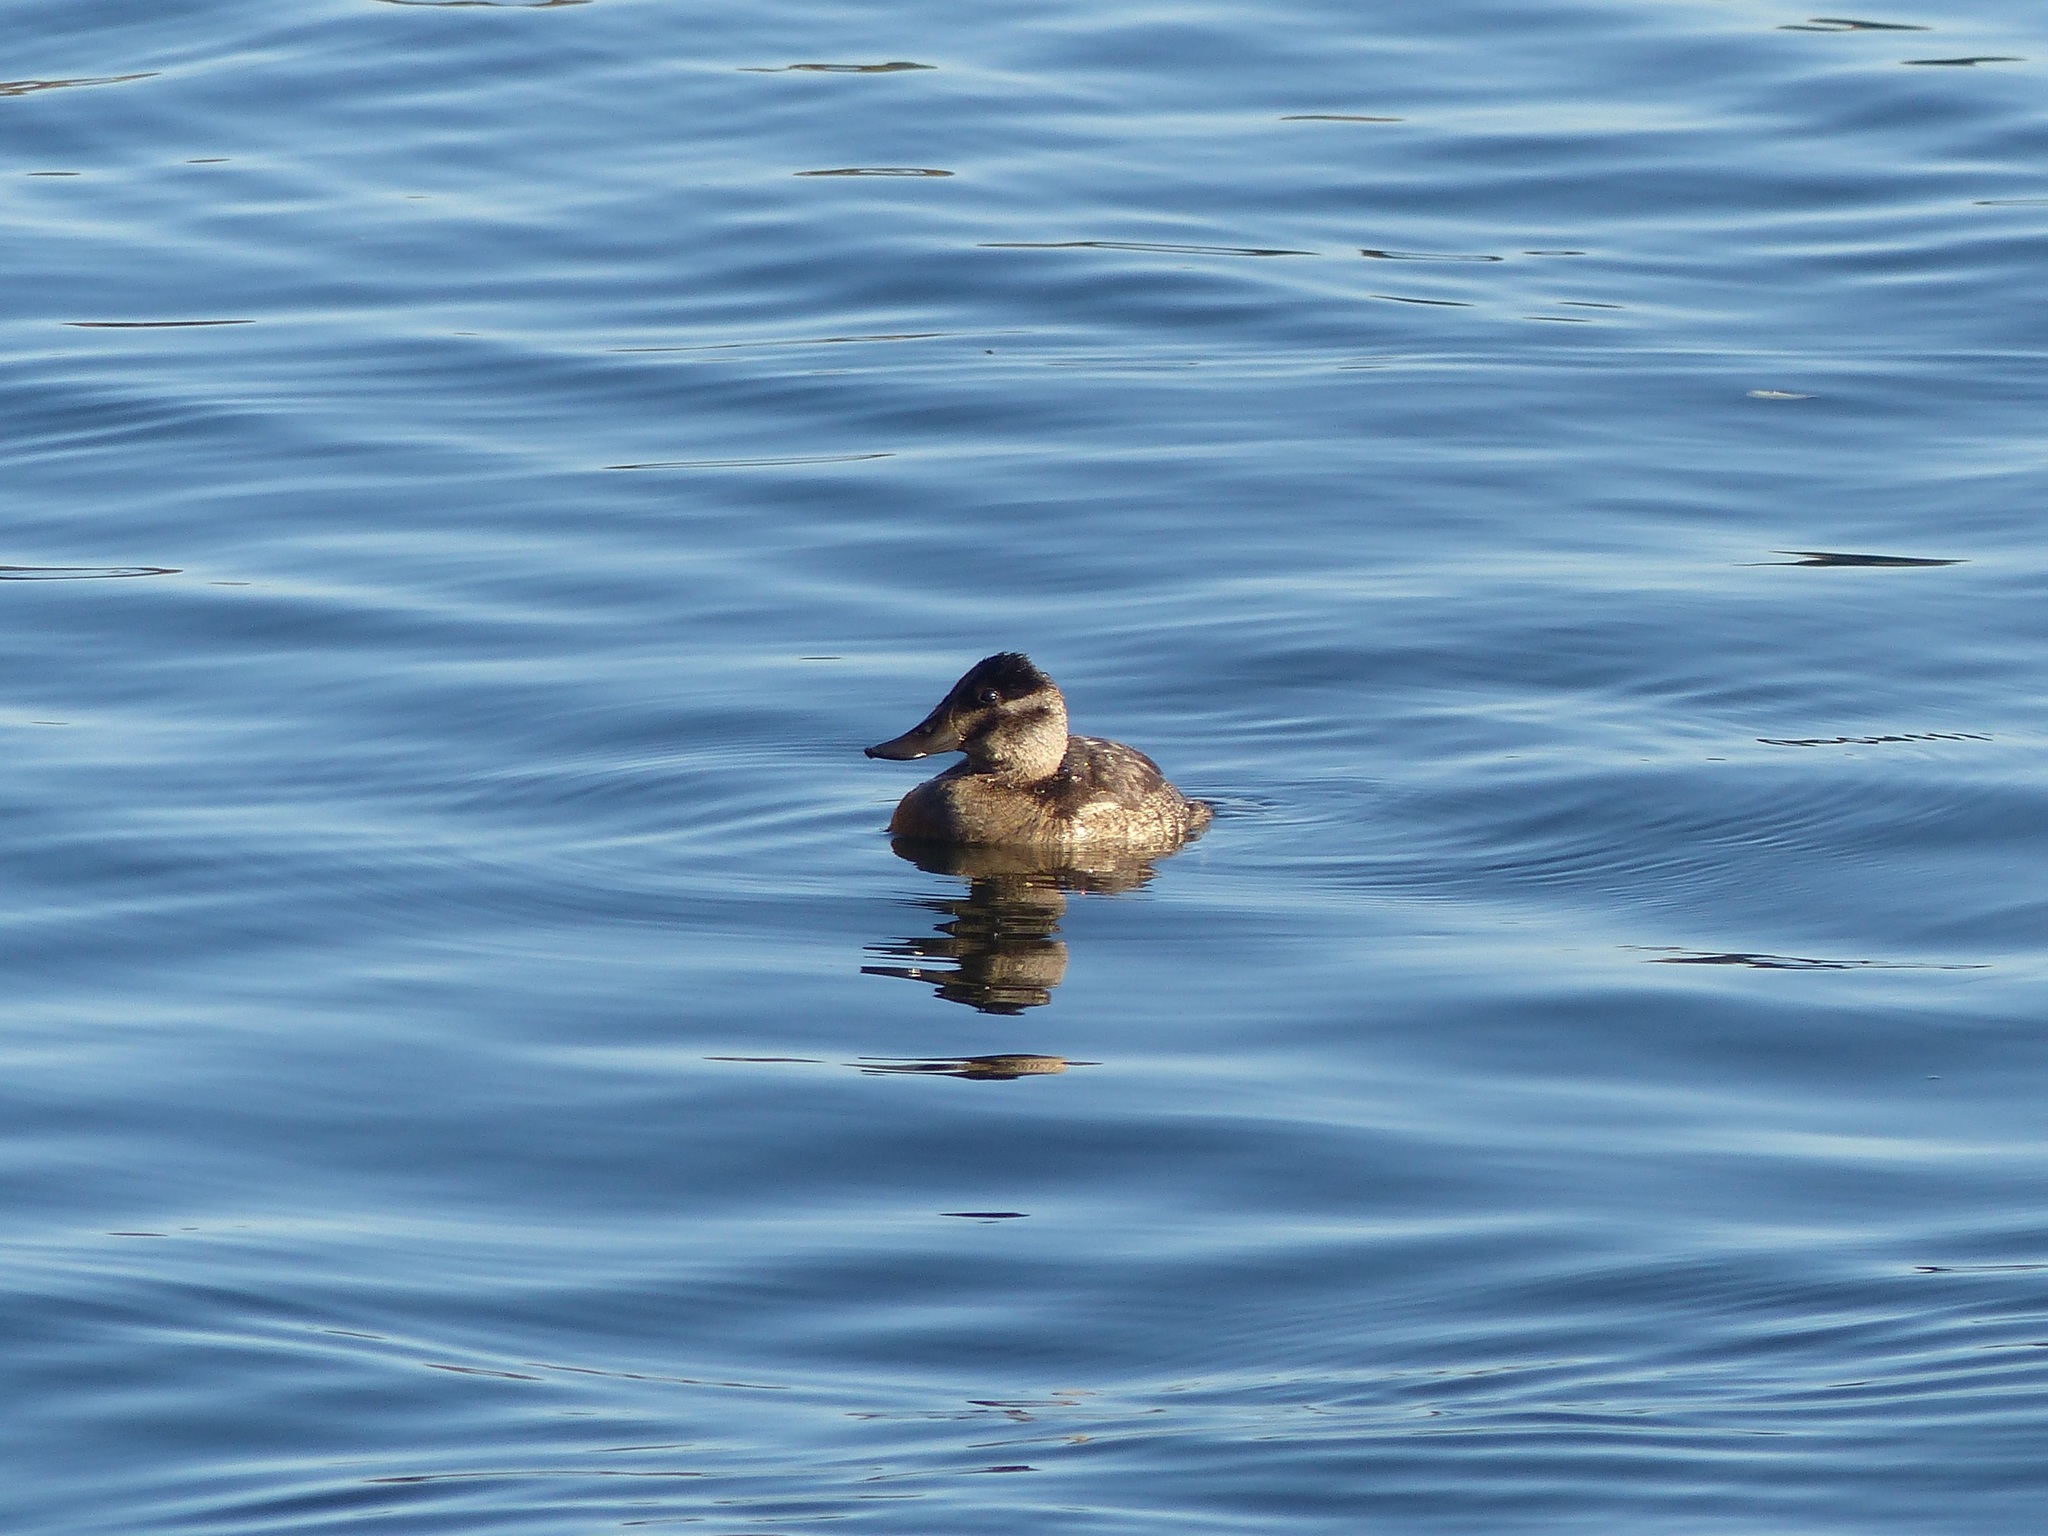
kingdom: Animalia
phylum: Chordata
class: Aves
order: Anseriformes
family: Anatidae
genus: Oxyura
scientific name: Oxyura jamaicensis
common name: Ruddy duck
